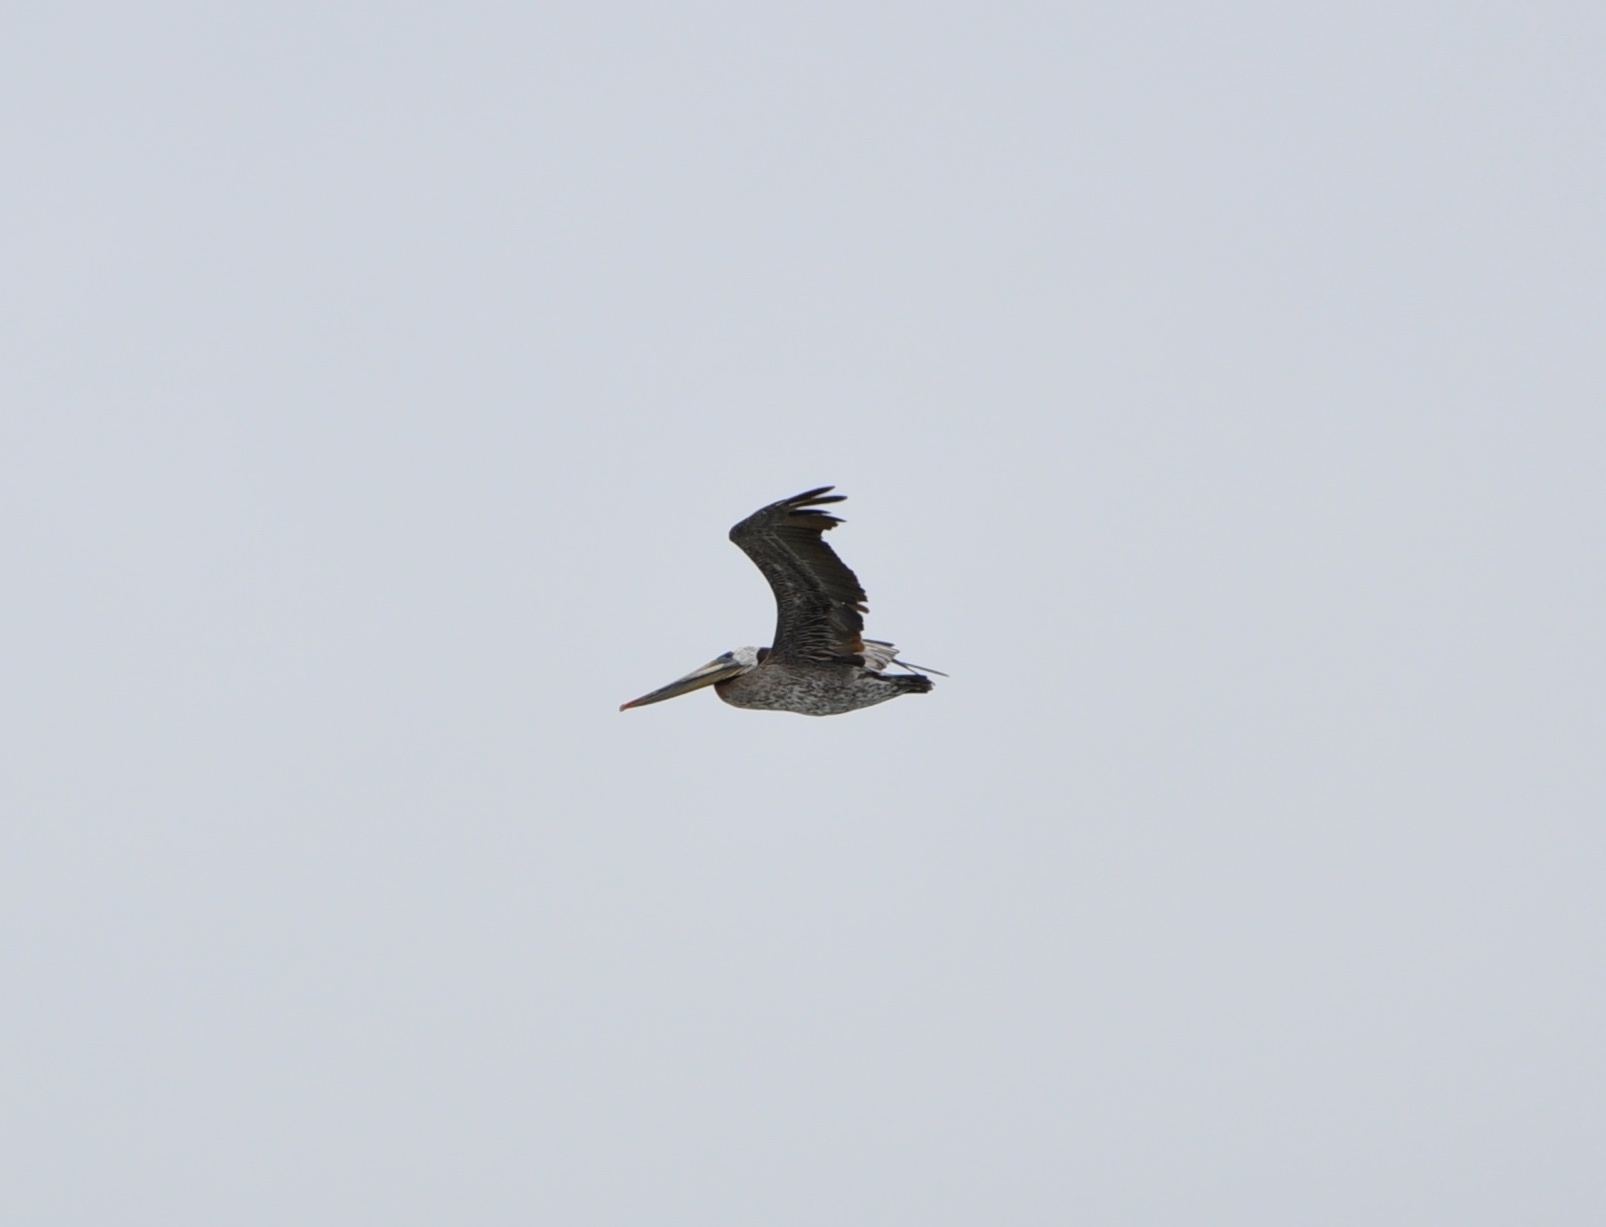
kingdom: Animalia
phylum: Chordata
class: Aves
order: Pelecaniformes
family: Pelecanidae
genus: Pelecanus
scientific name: Pelecanus occidentalis
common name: Brown pelican
